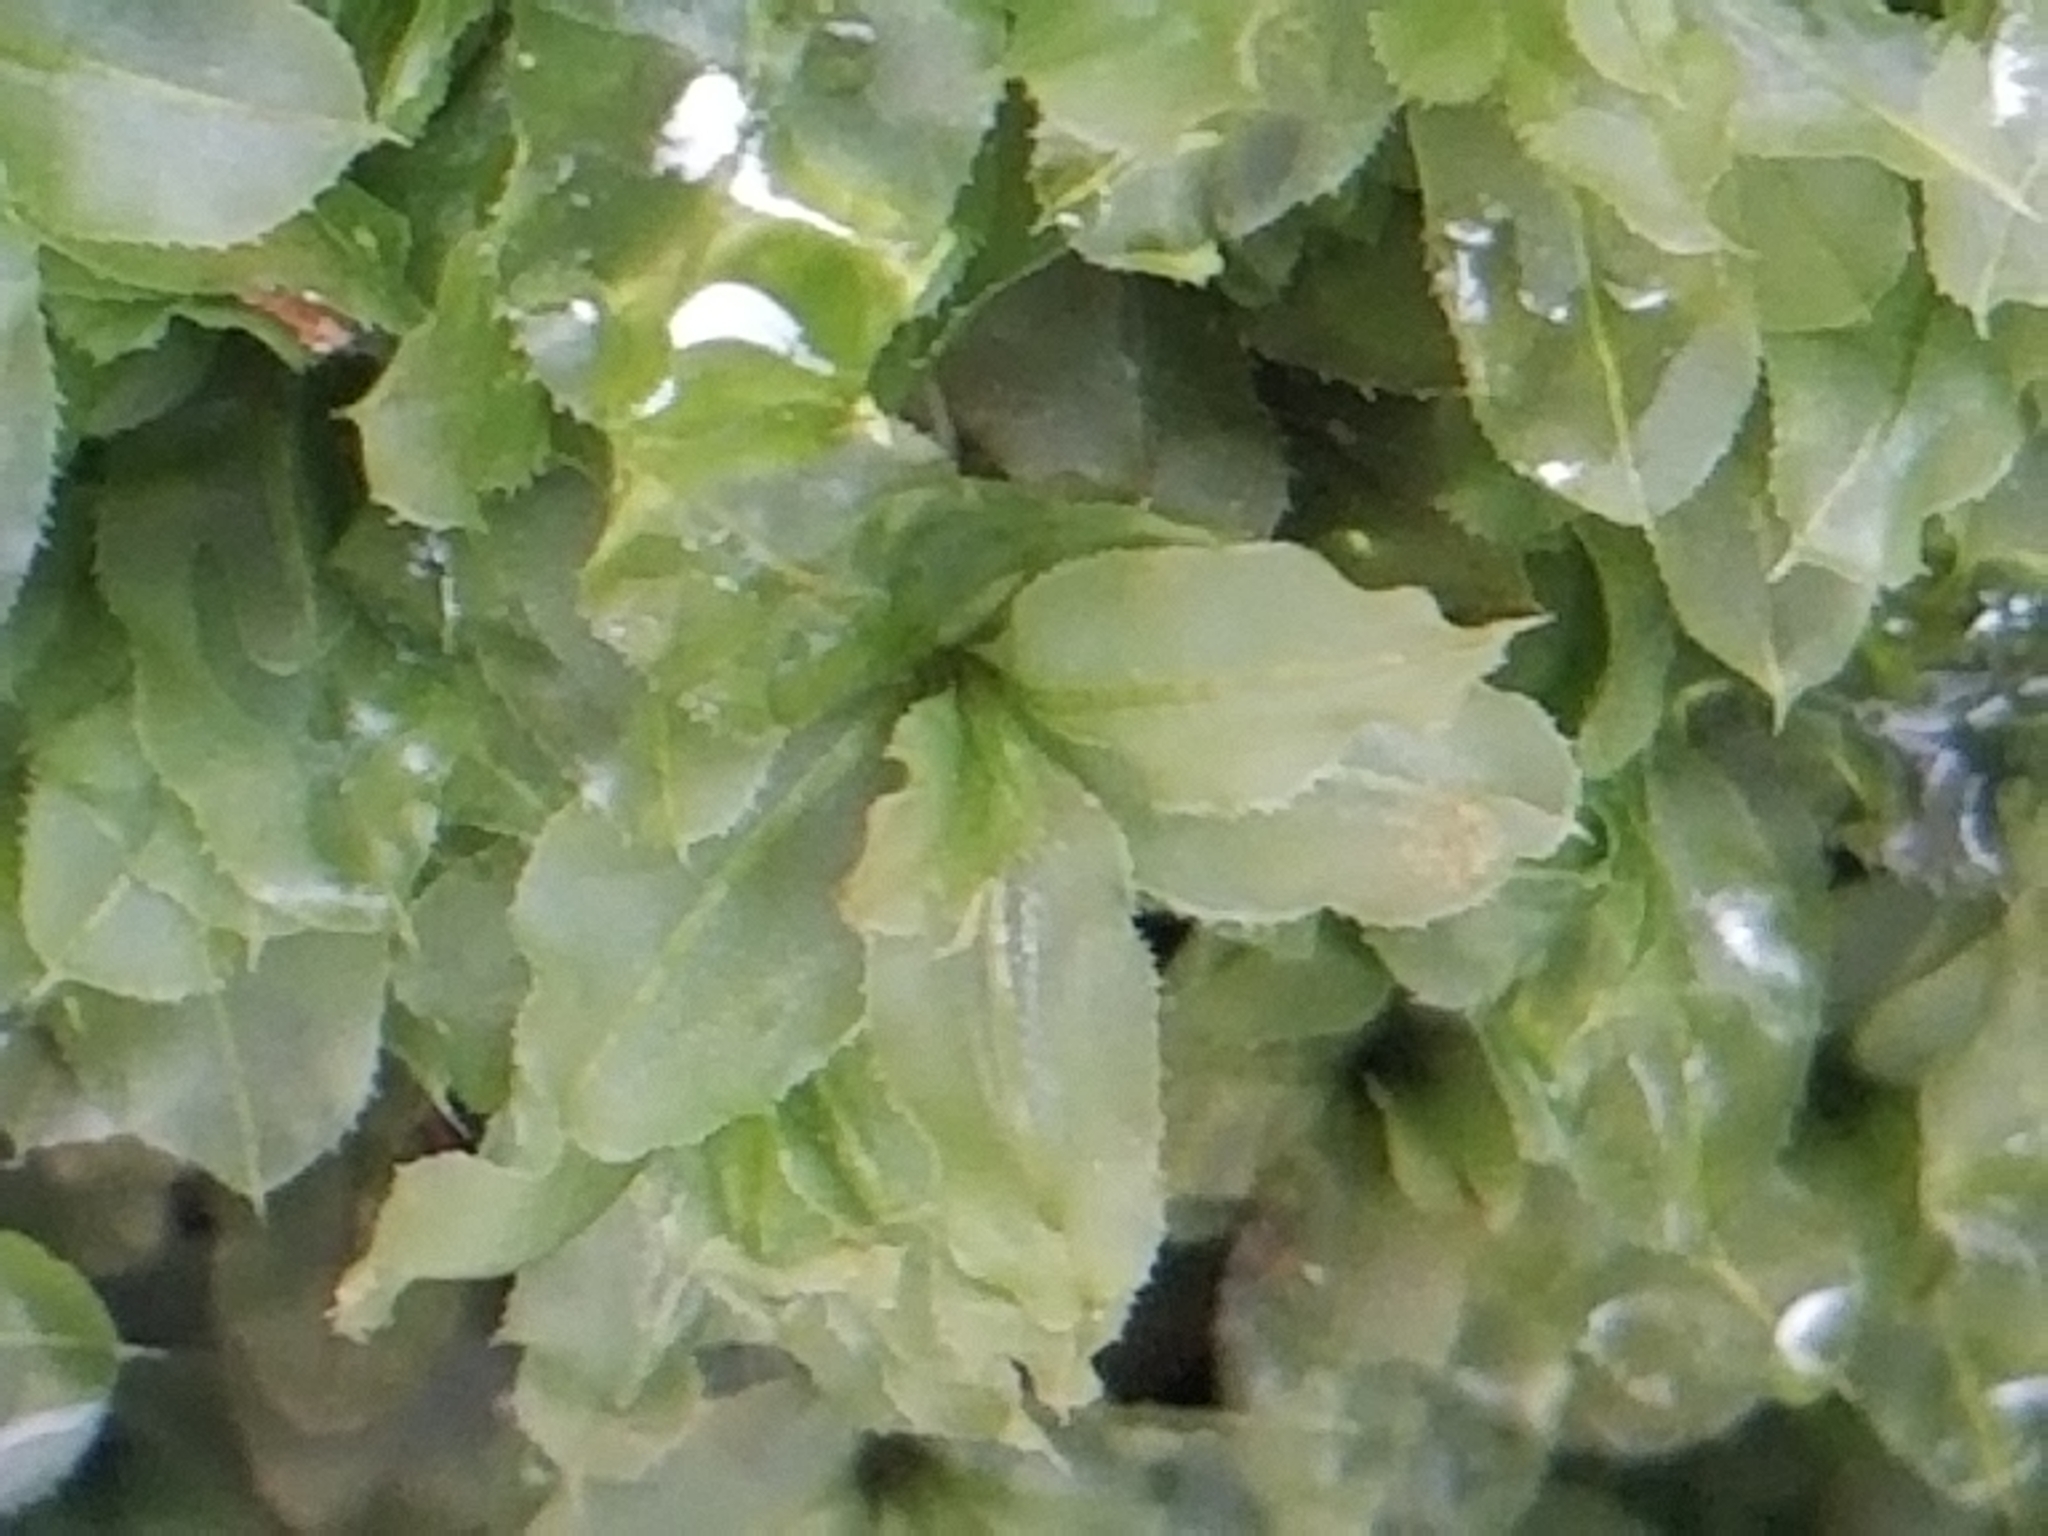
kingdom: Plantae
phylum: Bryophyta
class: Bryopsida
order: Bryales
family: Mniaceae
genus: Plagiomnium
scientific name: Plagiomnium ciliare
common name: Toothed leafy moss
